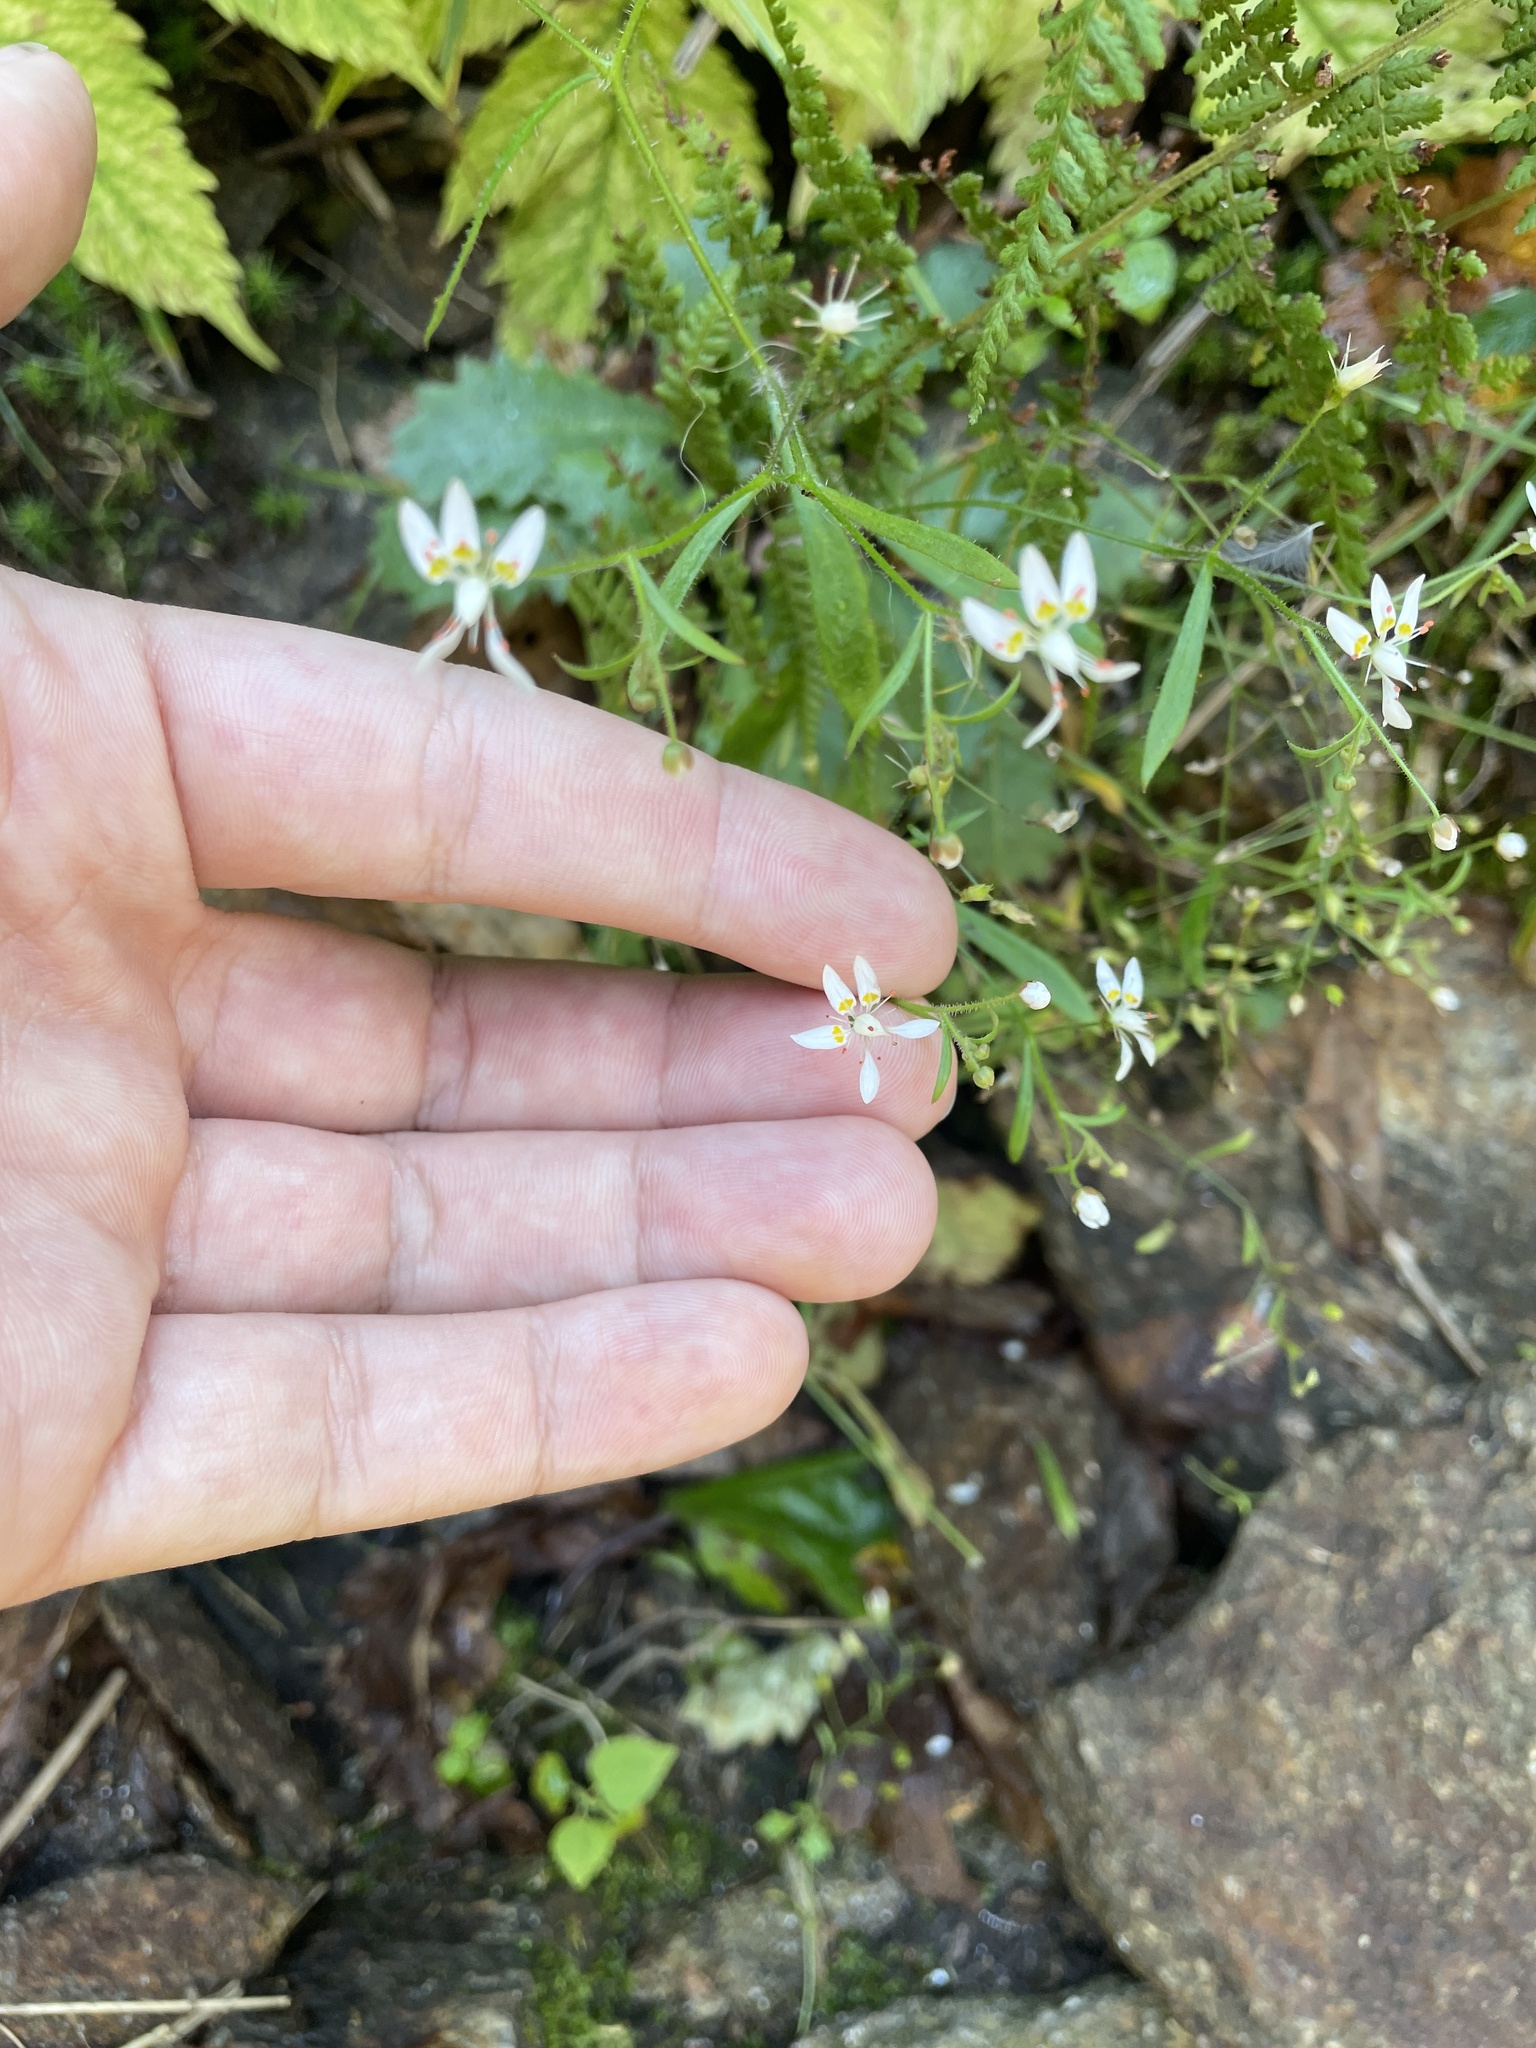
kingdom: Plantae
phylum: Tracheophyta
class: Magnoliopsida
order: Saxifragales
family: Saxifragaceae
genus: Micranthes
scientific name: Micranthes petiolaris
